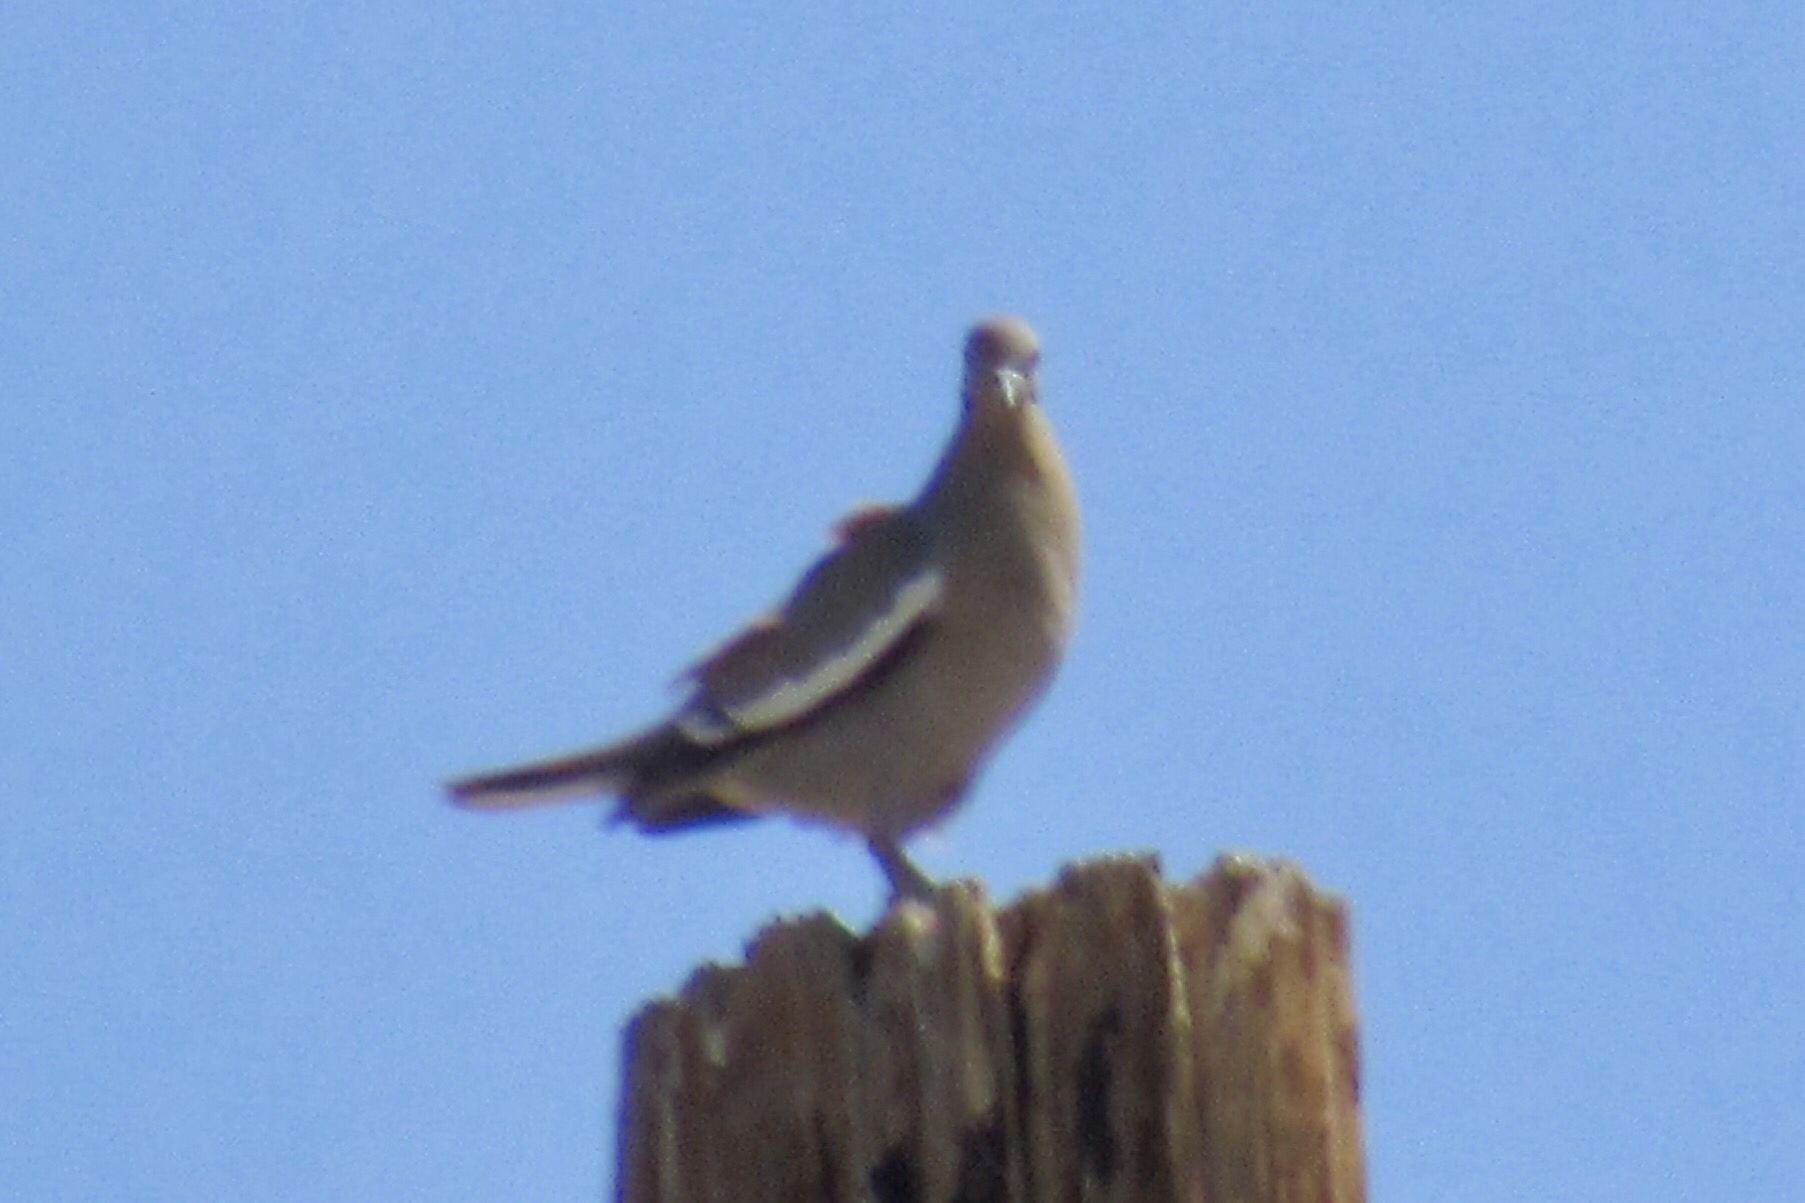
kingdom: Animalia
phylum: Chordata
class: Aves
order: Columbiformes
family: Columbidae
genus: Zenaida
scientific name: Zenaida asiatica
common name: White-winged dove
